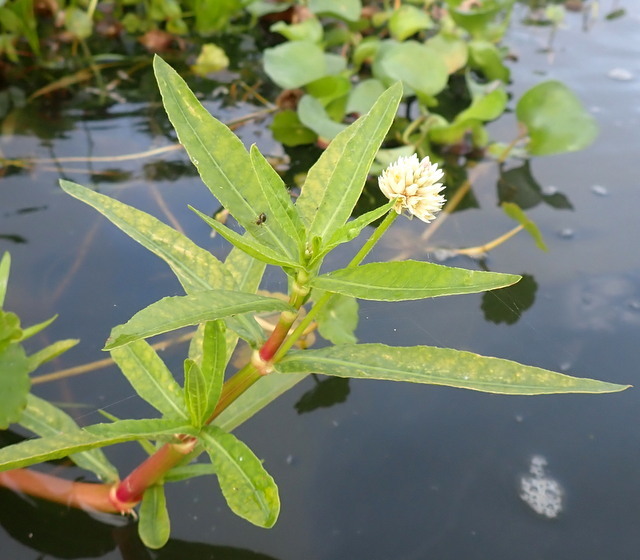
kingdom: Plantae
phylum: Tracheophyta
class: Magnoliopsida
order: Caryophyllales
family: Amaranthaceae
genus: Alternanthera
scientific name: Alternanthera philoxeroides
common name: Alligatorweed
